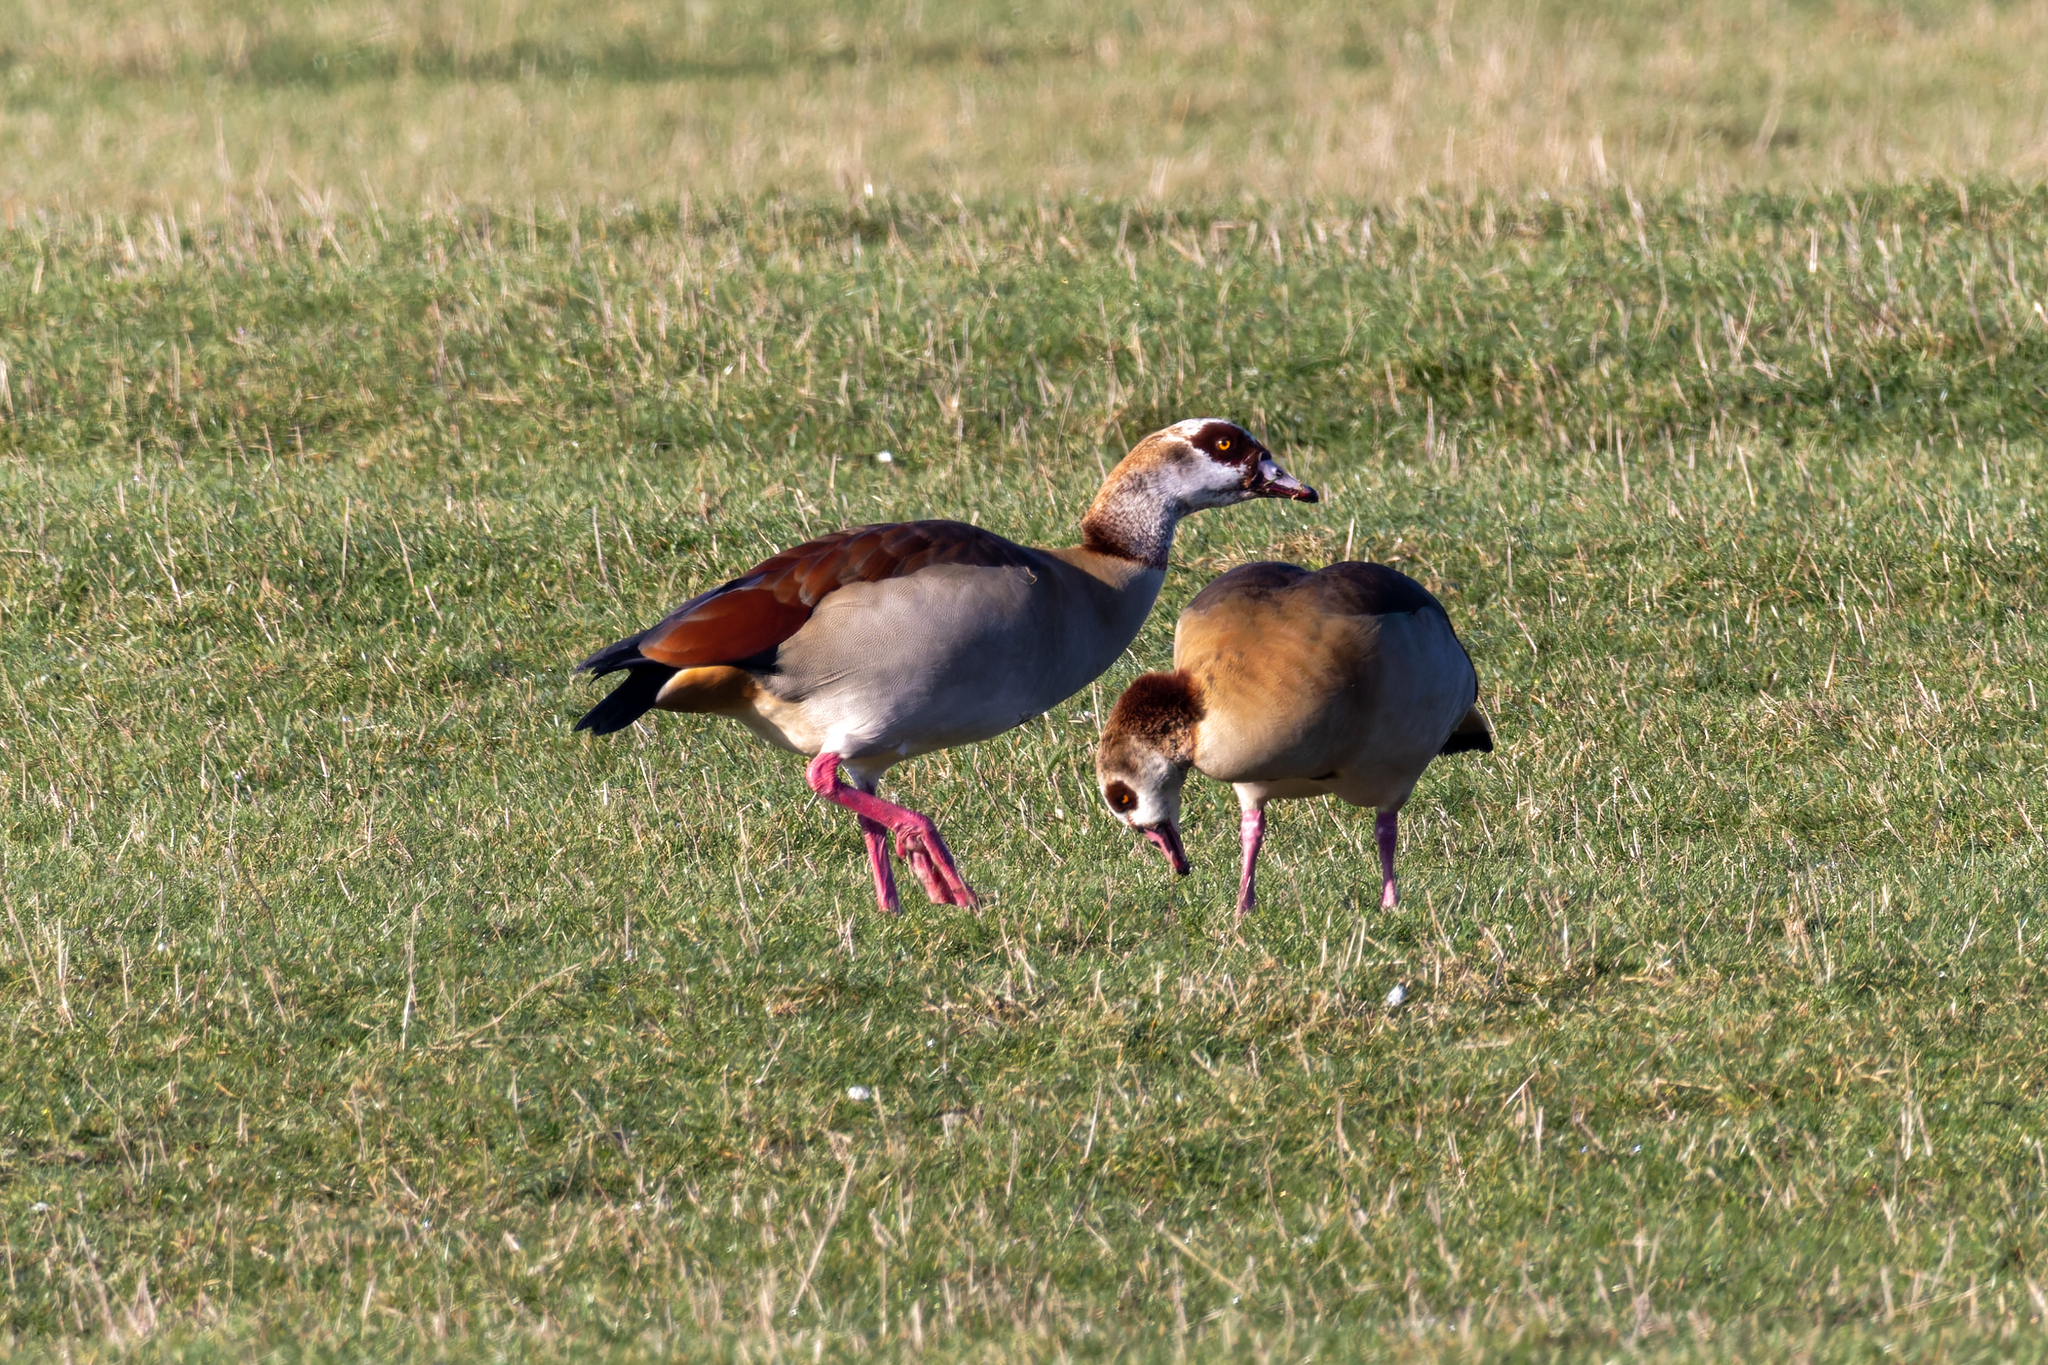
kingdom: Animalia
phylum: Chordata
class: Aves
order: Anseriformes
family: Anatidae
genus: Alopochen
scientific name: Alopochen aegyptiaca
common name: Egyptian goose
